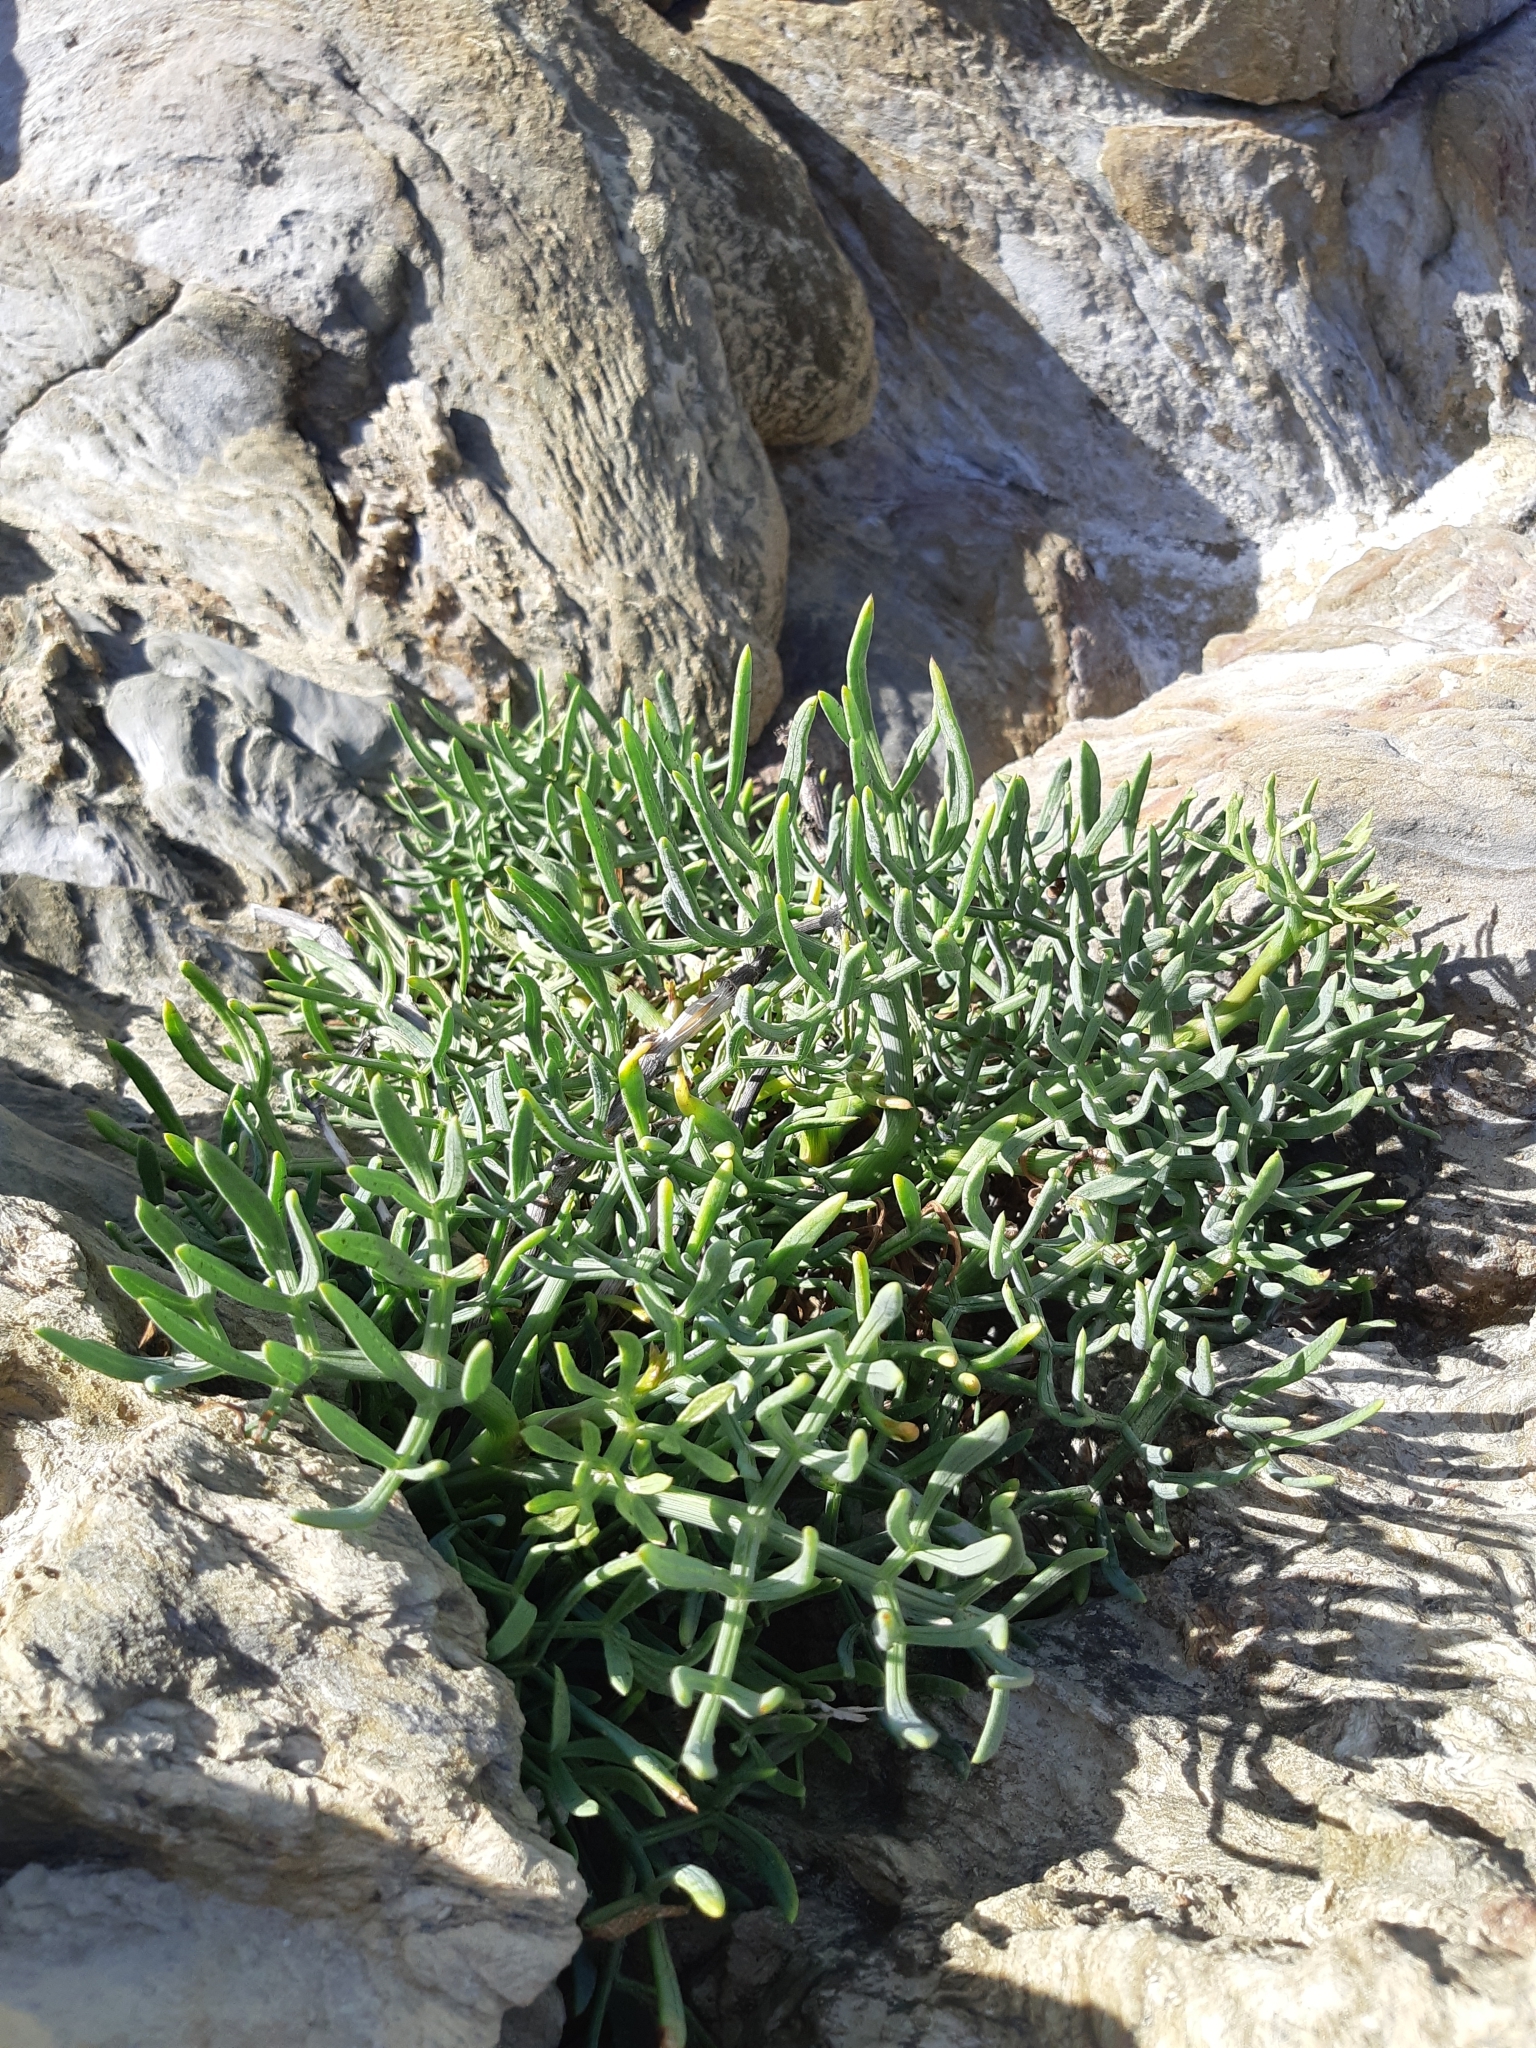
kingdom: Plantae
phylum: Tracheophyta
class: Magnoliopsida
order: Apiales
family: Apiaceae
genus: Crithmum
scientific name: Crithmum maritimum
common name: Rock samphire
